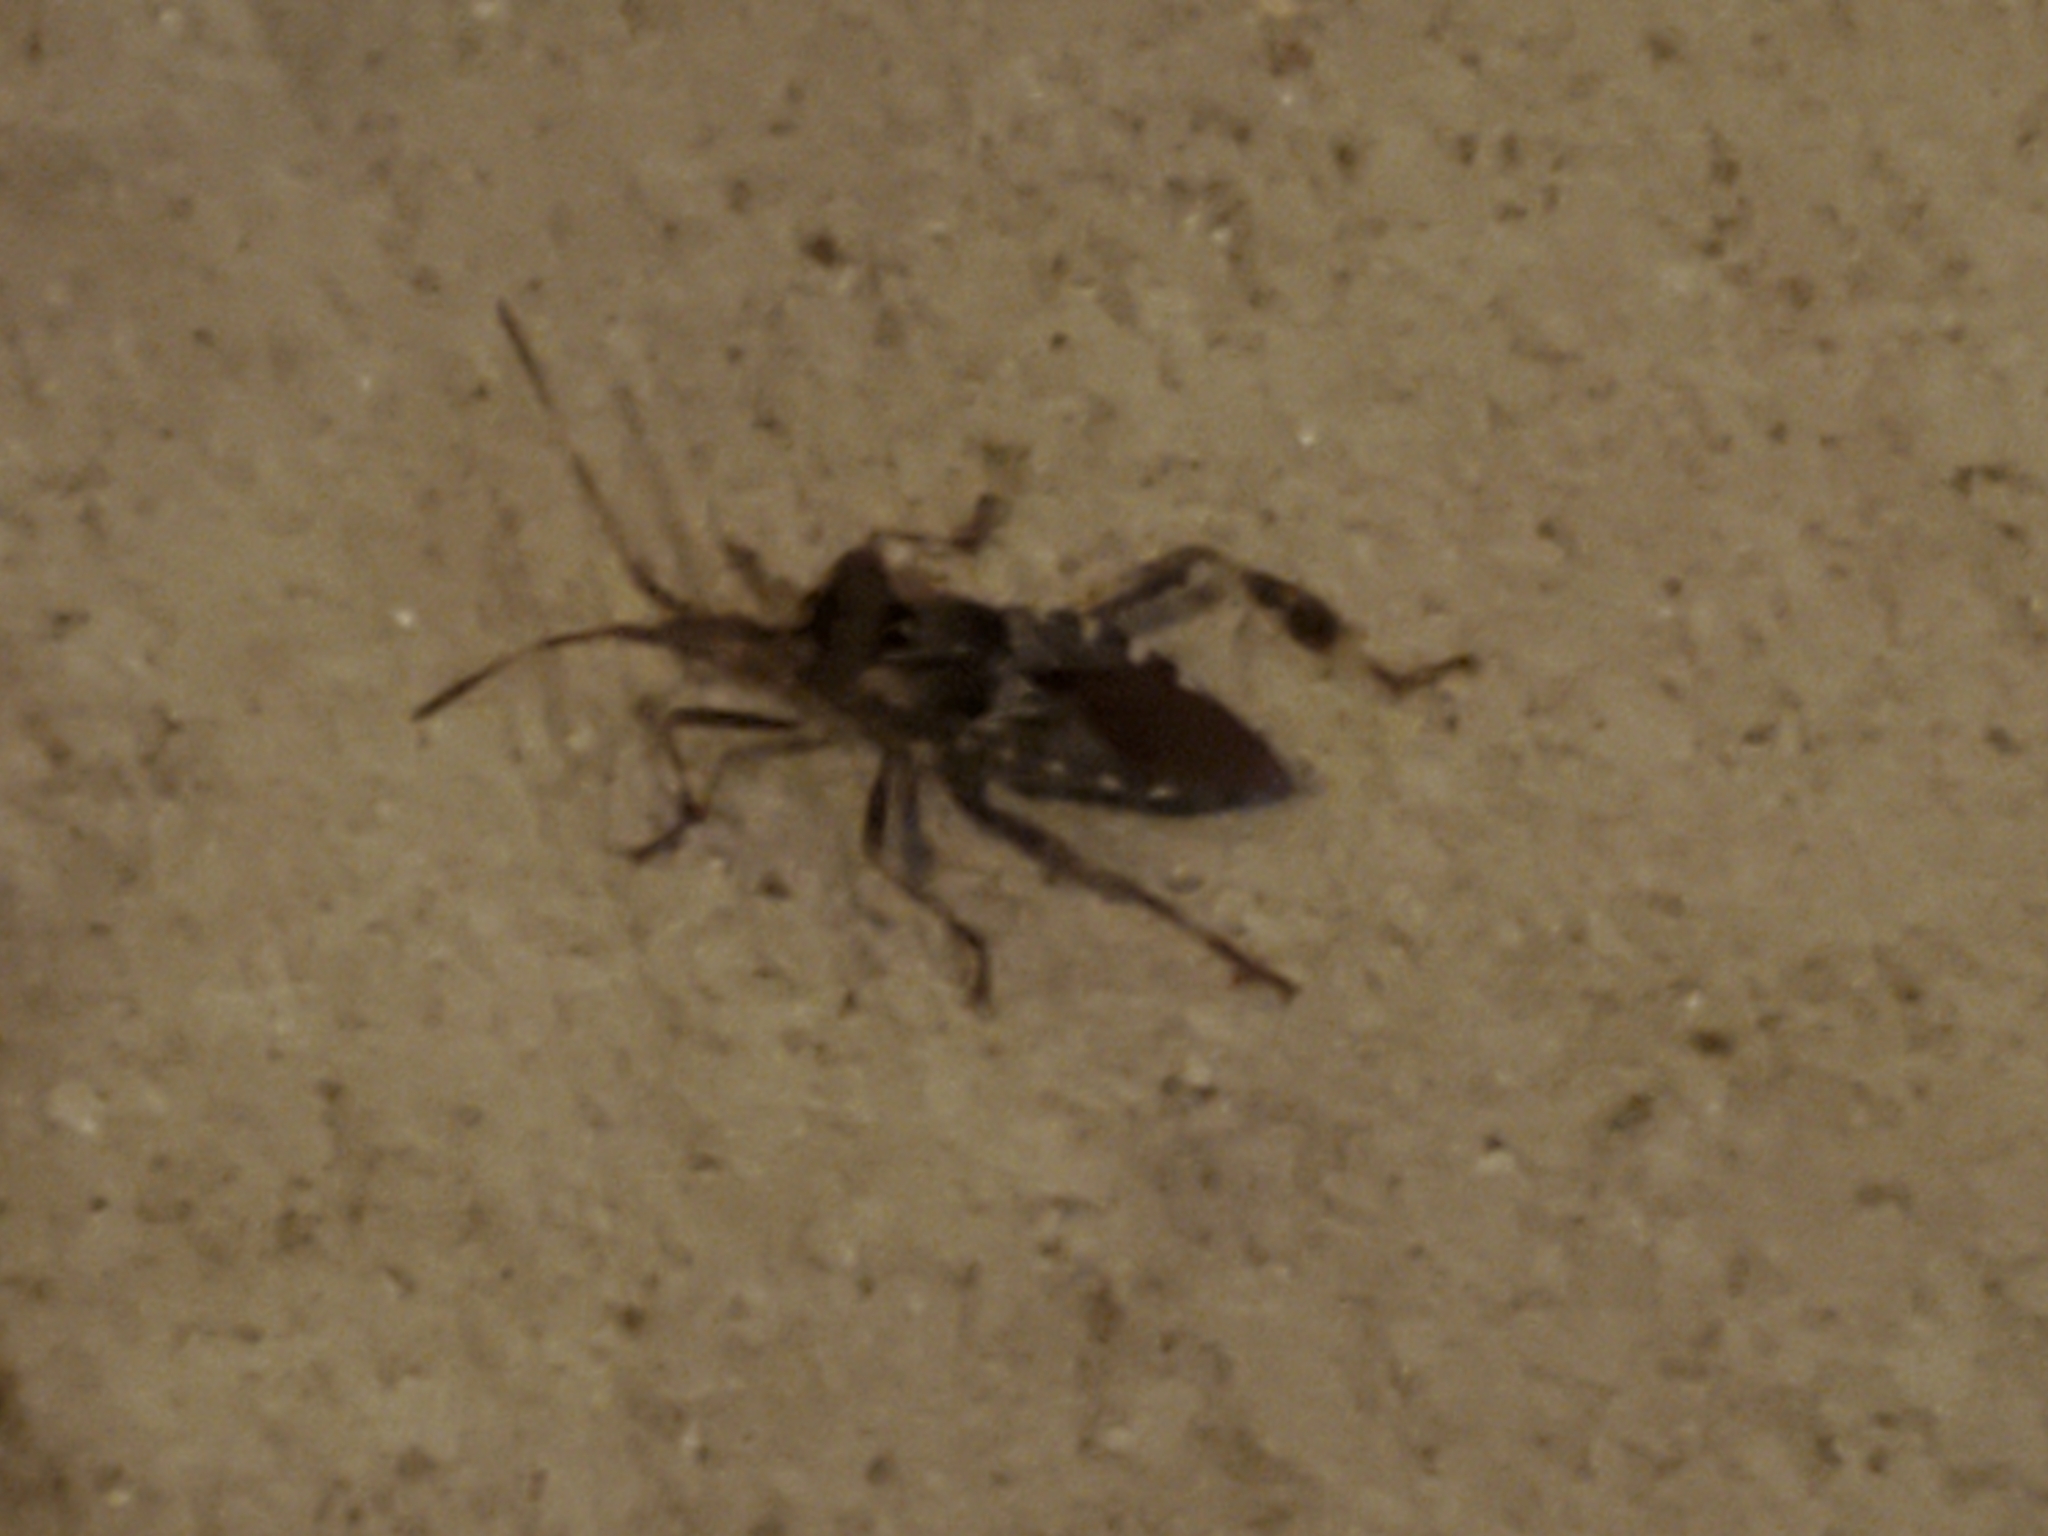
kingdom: Animalia
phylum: Arthropoda
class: Insecta
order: Hemiptera
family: Coreidae
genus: Leptoglossus
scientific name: Leptoglossus occidentalis
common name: Western conifer-seed bug
